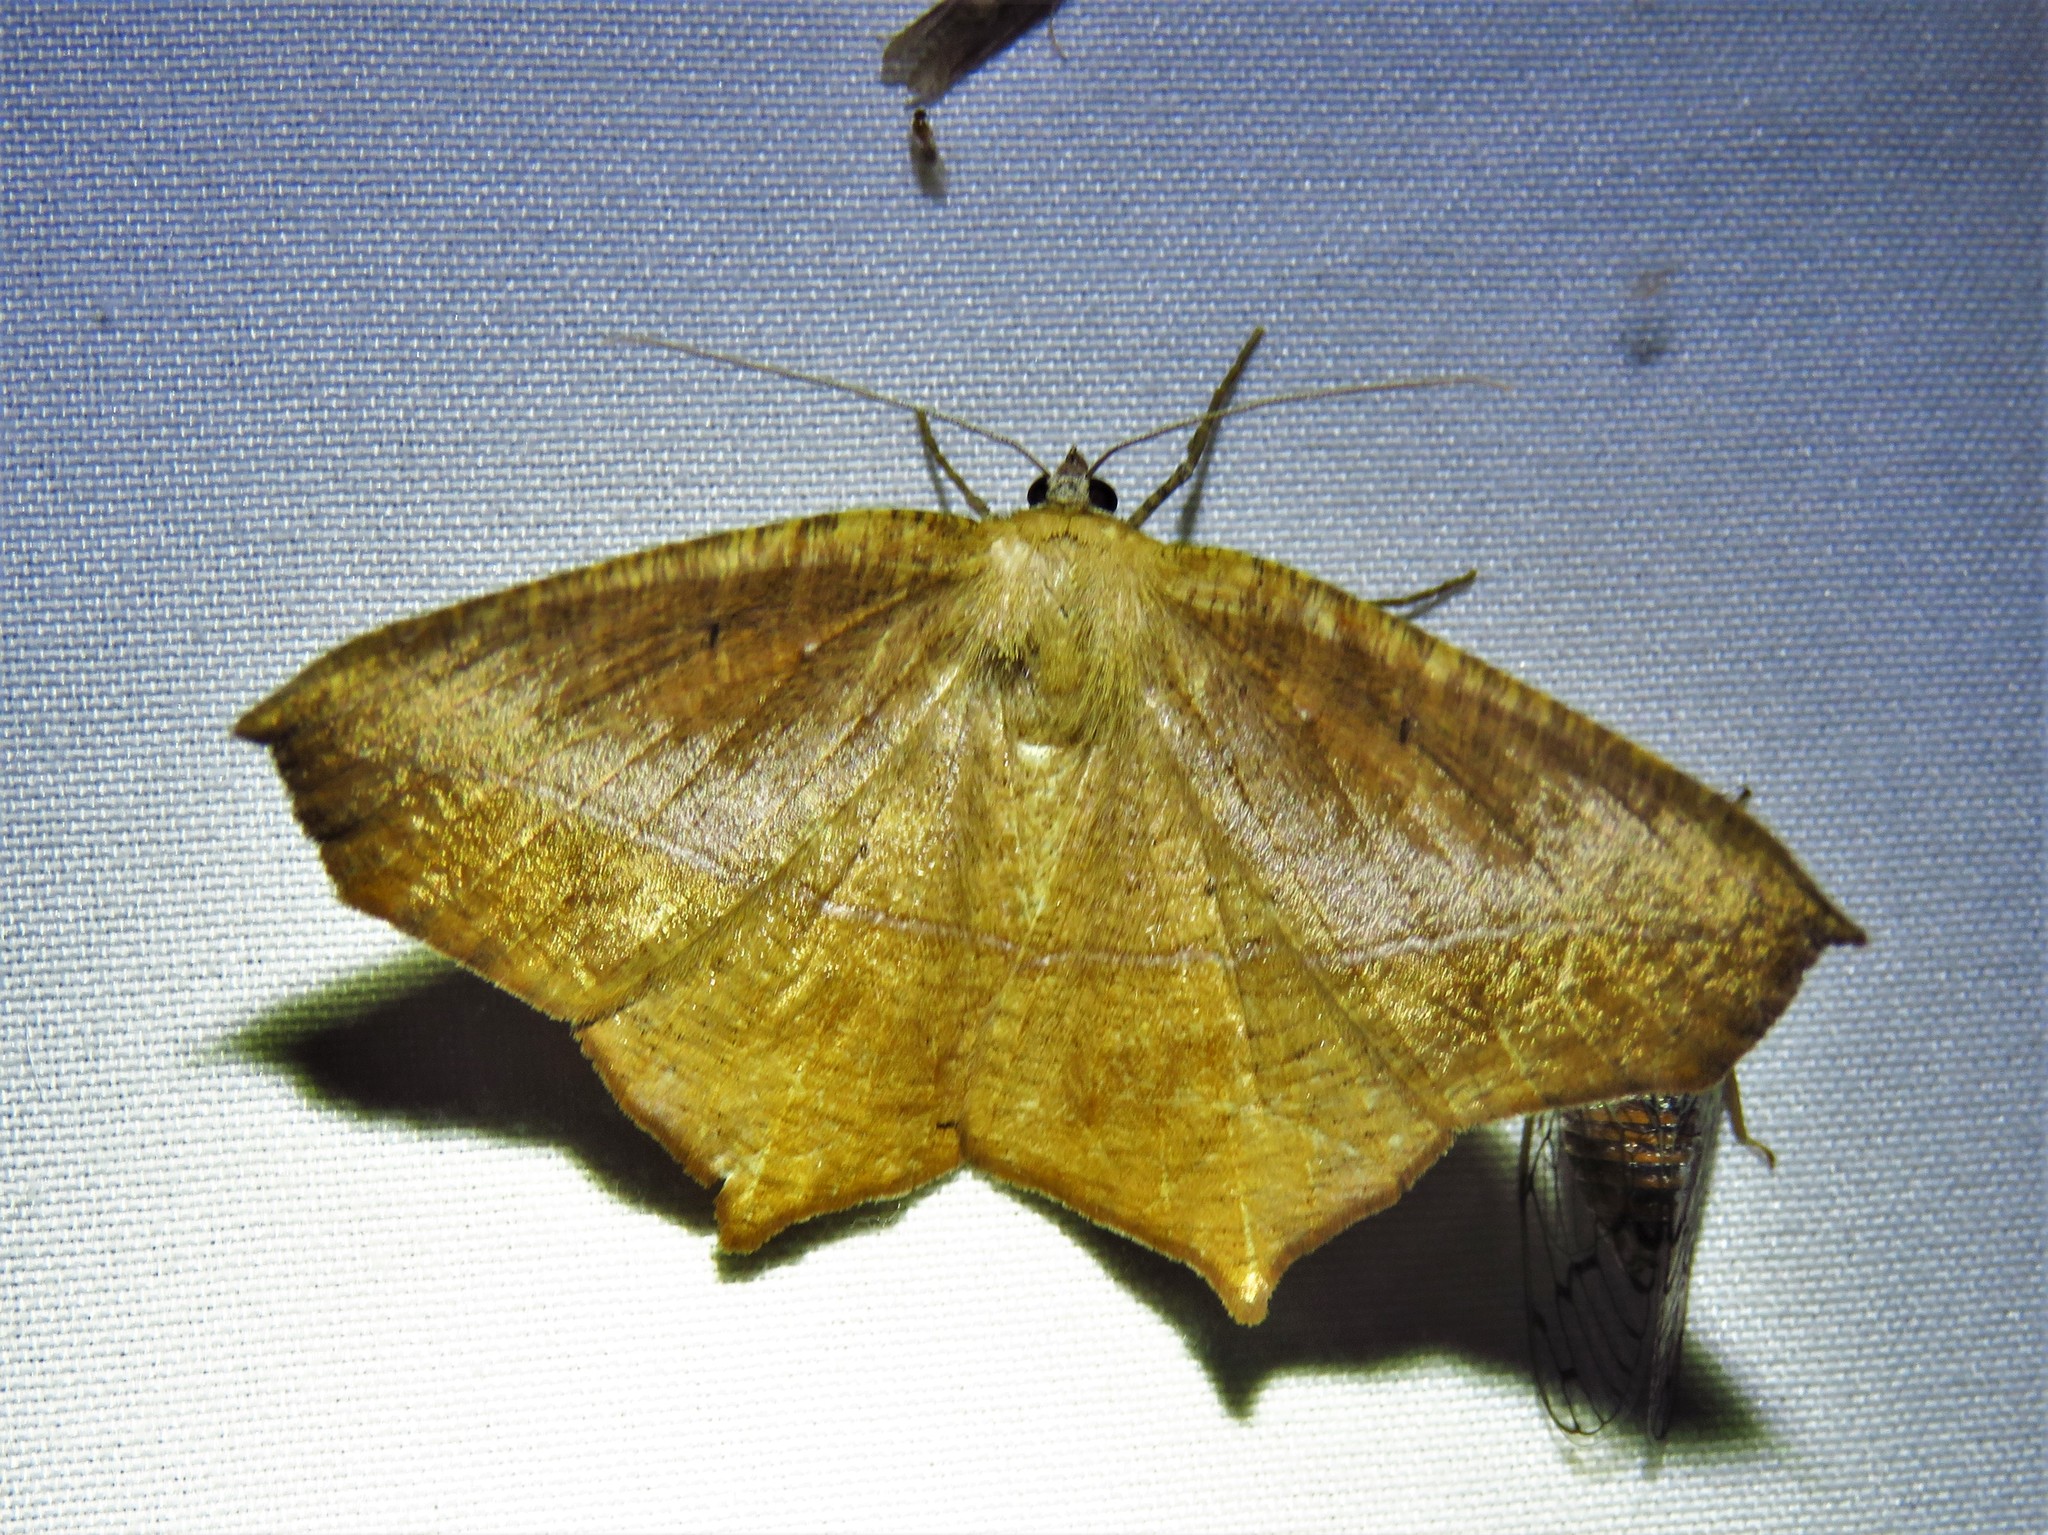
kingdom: Animalia
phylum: Arthropoda
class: Insecta
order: Lepidoptera
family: Geometridae
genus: Prochoerodes
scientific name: Prochoerodes lineola
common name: Large maple spanworm
